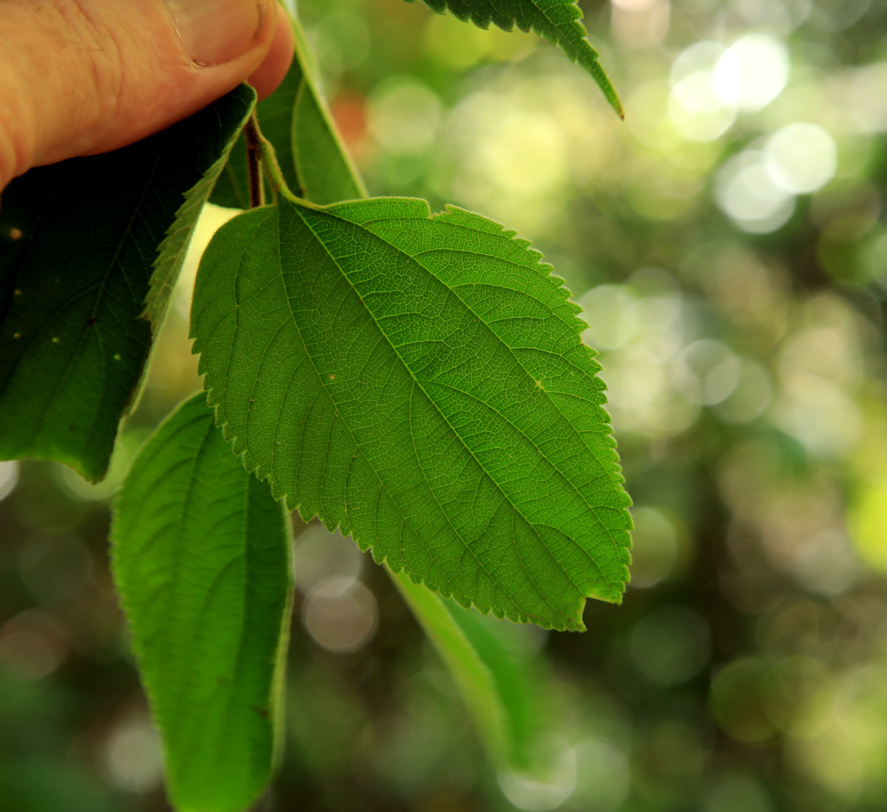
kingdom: Plantae
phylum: Tracheophyta
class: Magnoliopsida
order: Rosales
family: Cannabaceae
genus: Celtis
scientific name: Celtis africana
